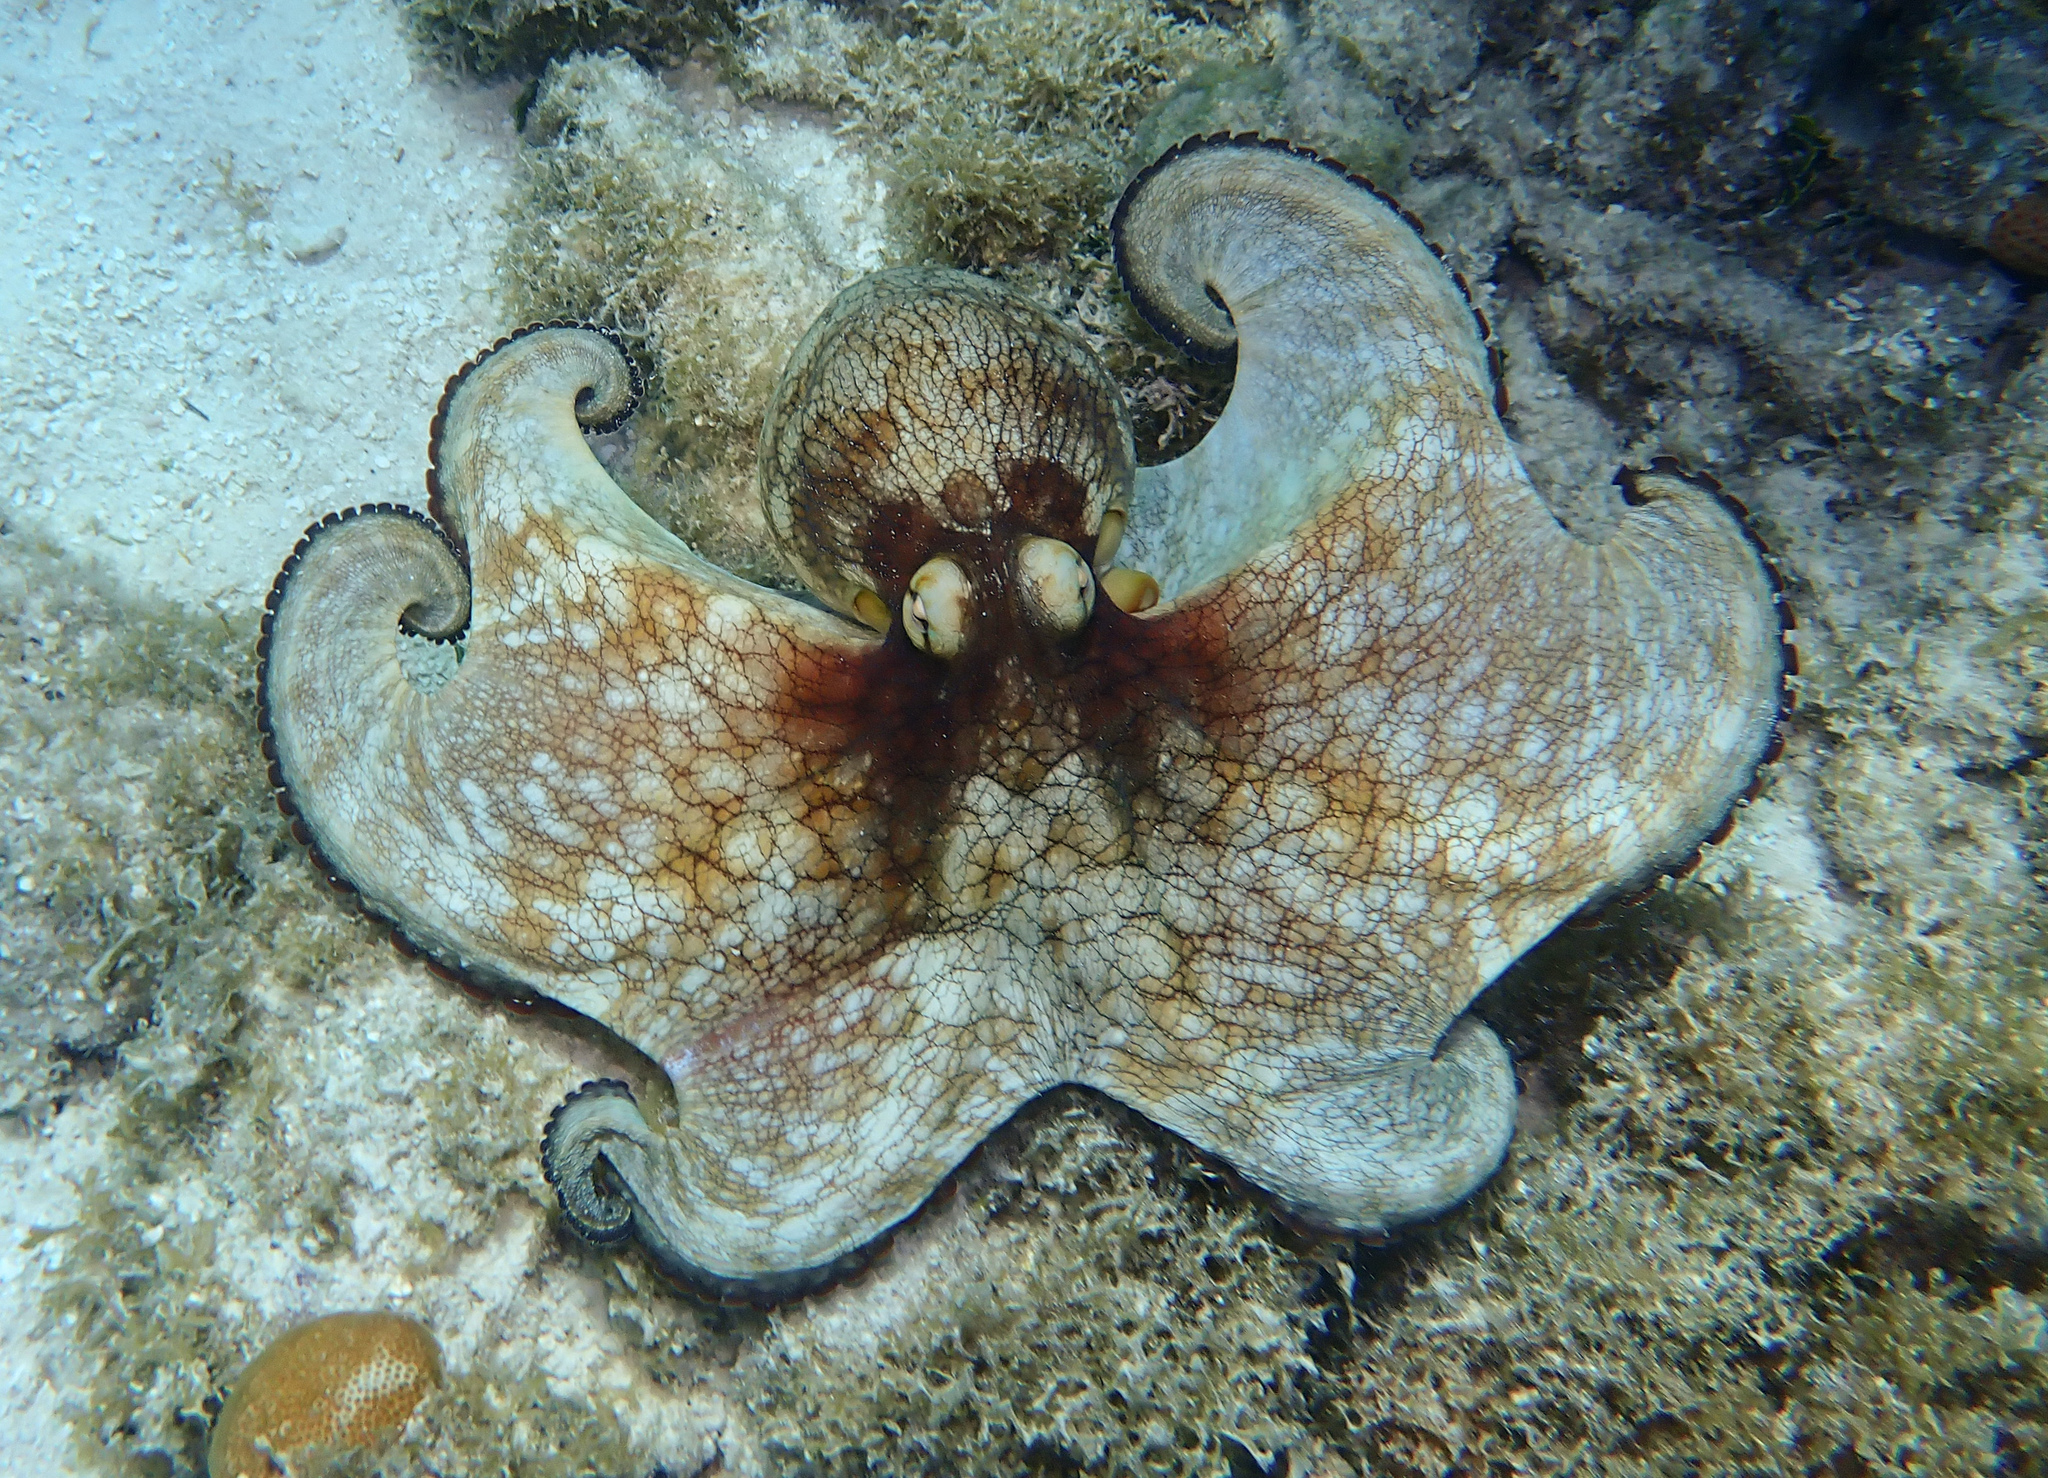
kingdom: Animalia
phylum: Mollusca
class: Cephalopoda
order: Octopoda
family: Octopodidae
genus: Octopus
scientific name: Octopus insularis
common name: Brazil reef octopus
